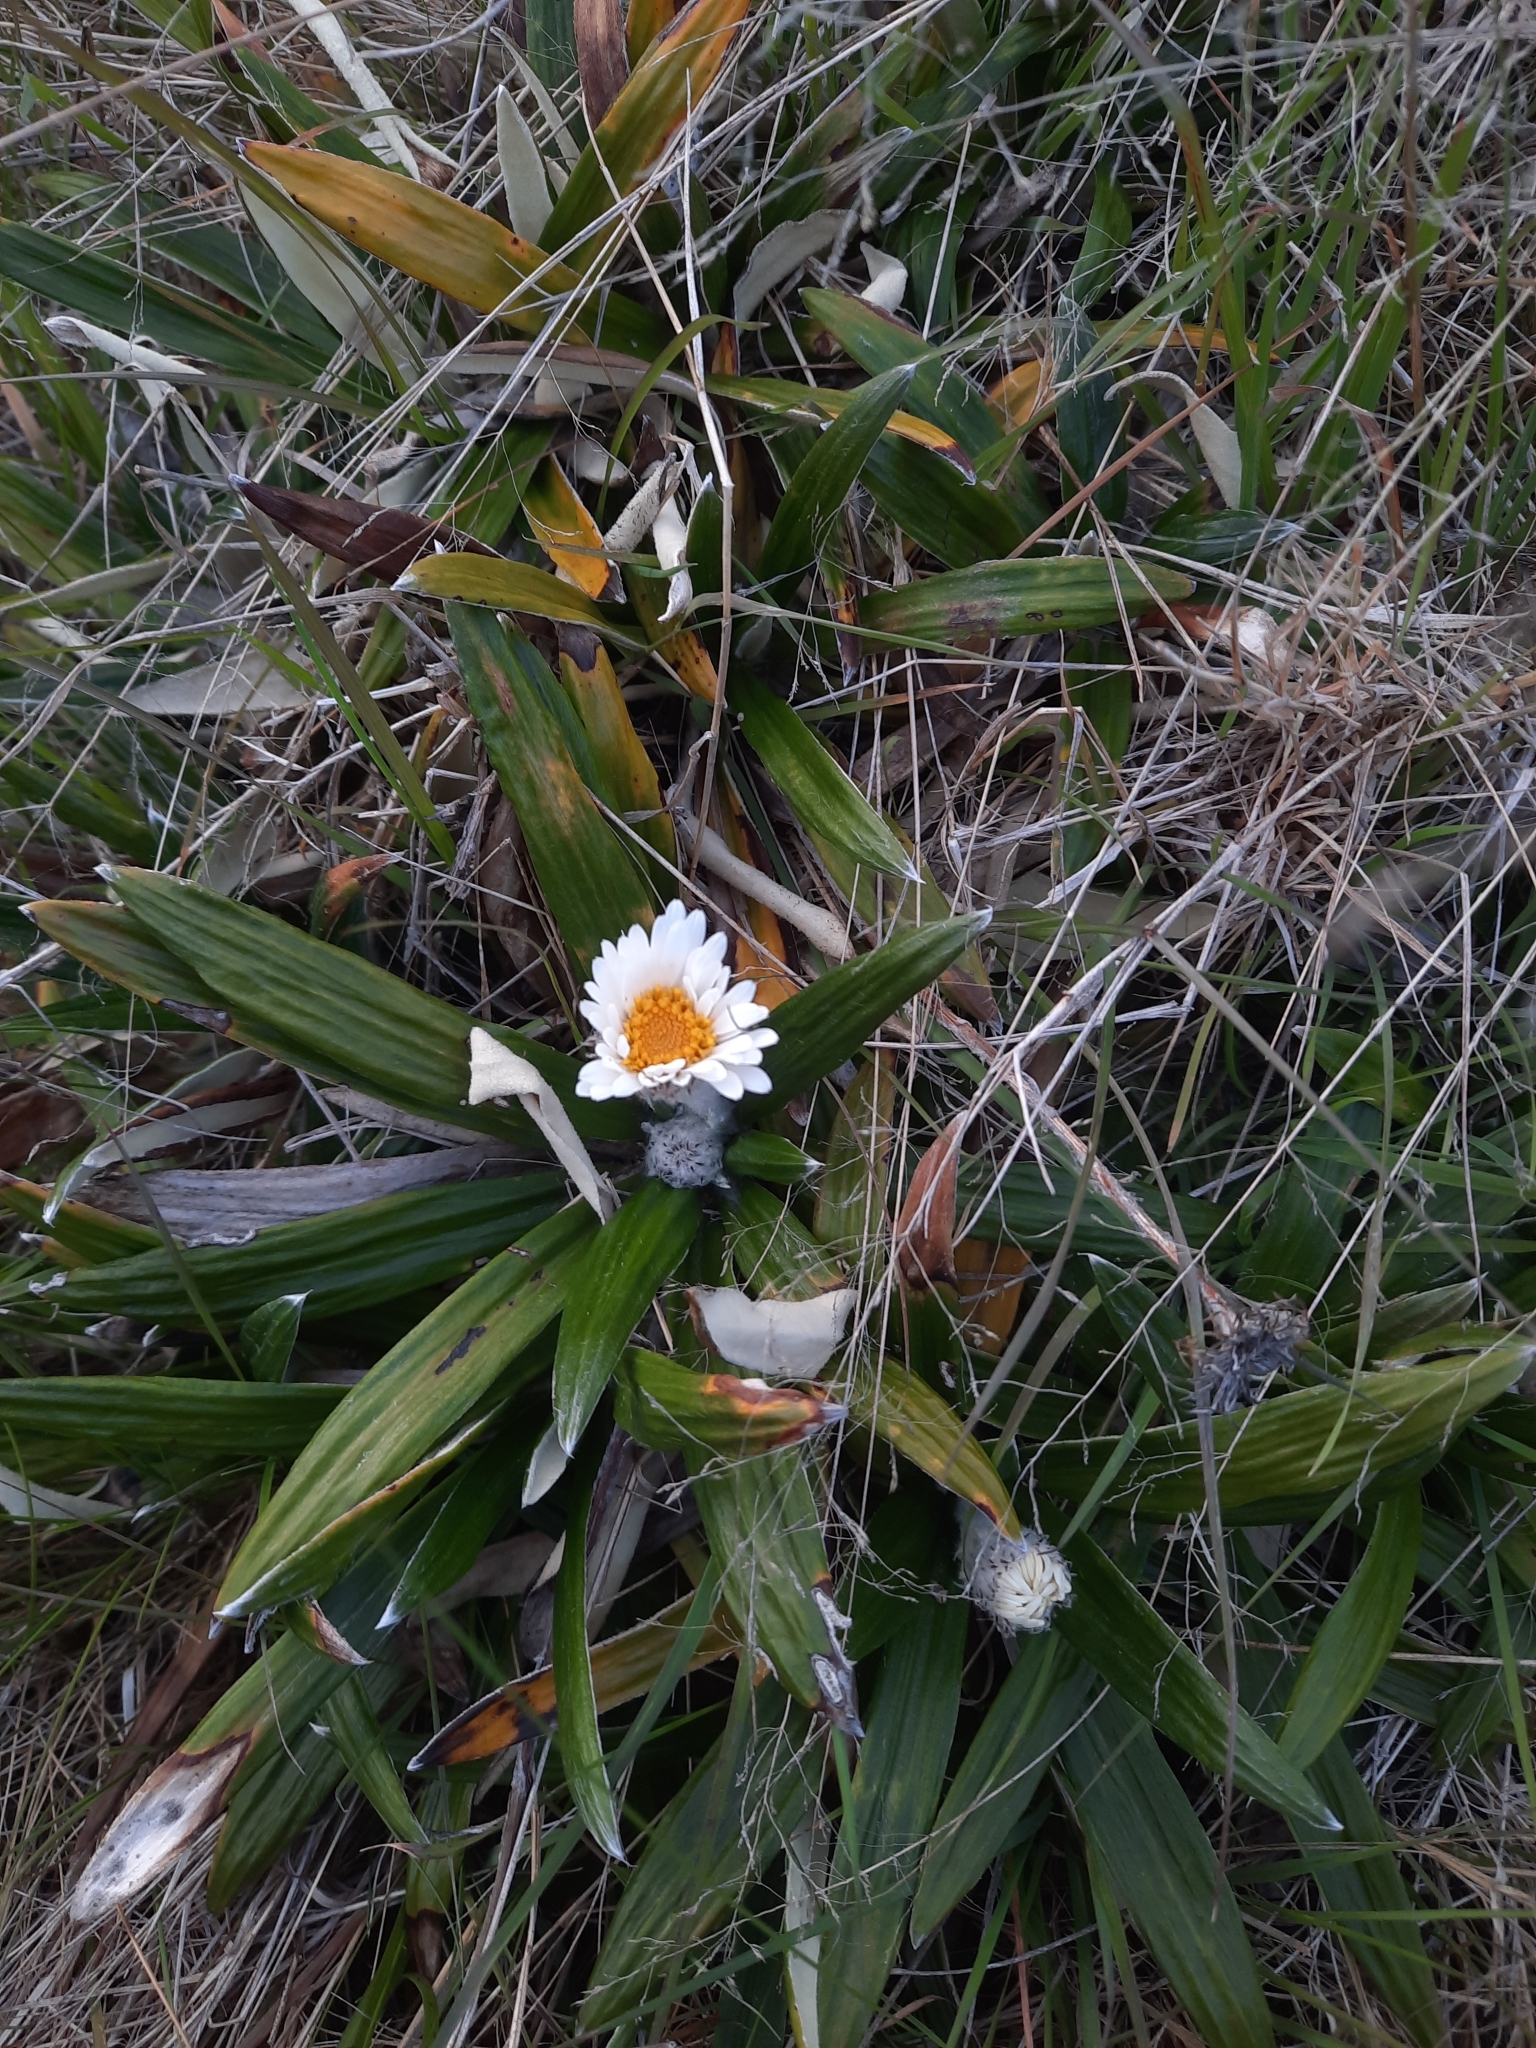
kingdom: Plantae
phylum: Tracheophyta
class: Magnoliopsida
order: Asterales
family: Asteraceae
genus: Celmisia
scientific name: Celmisia spectabilis
